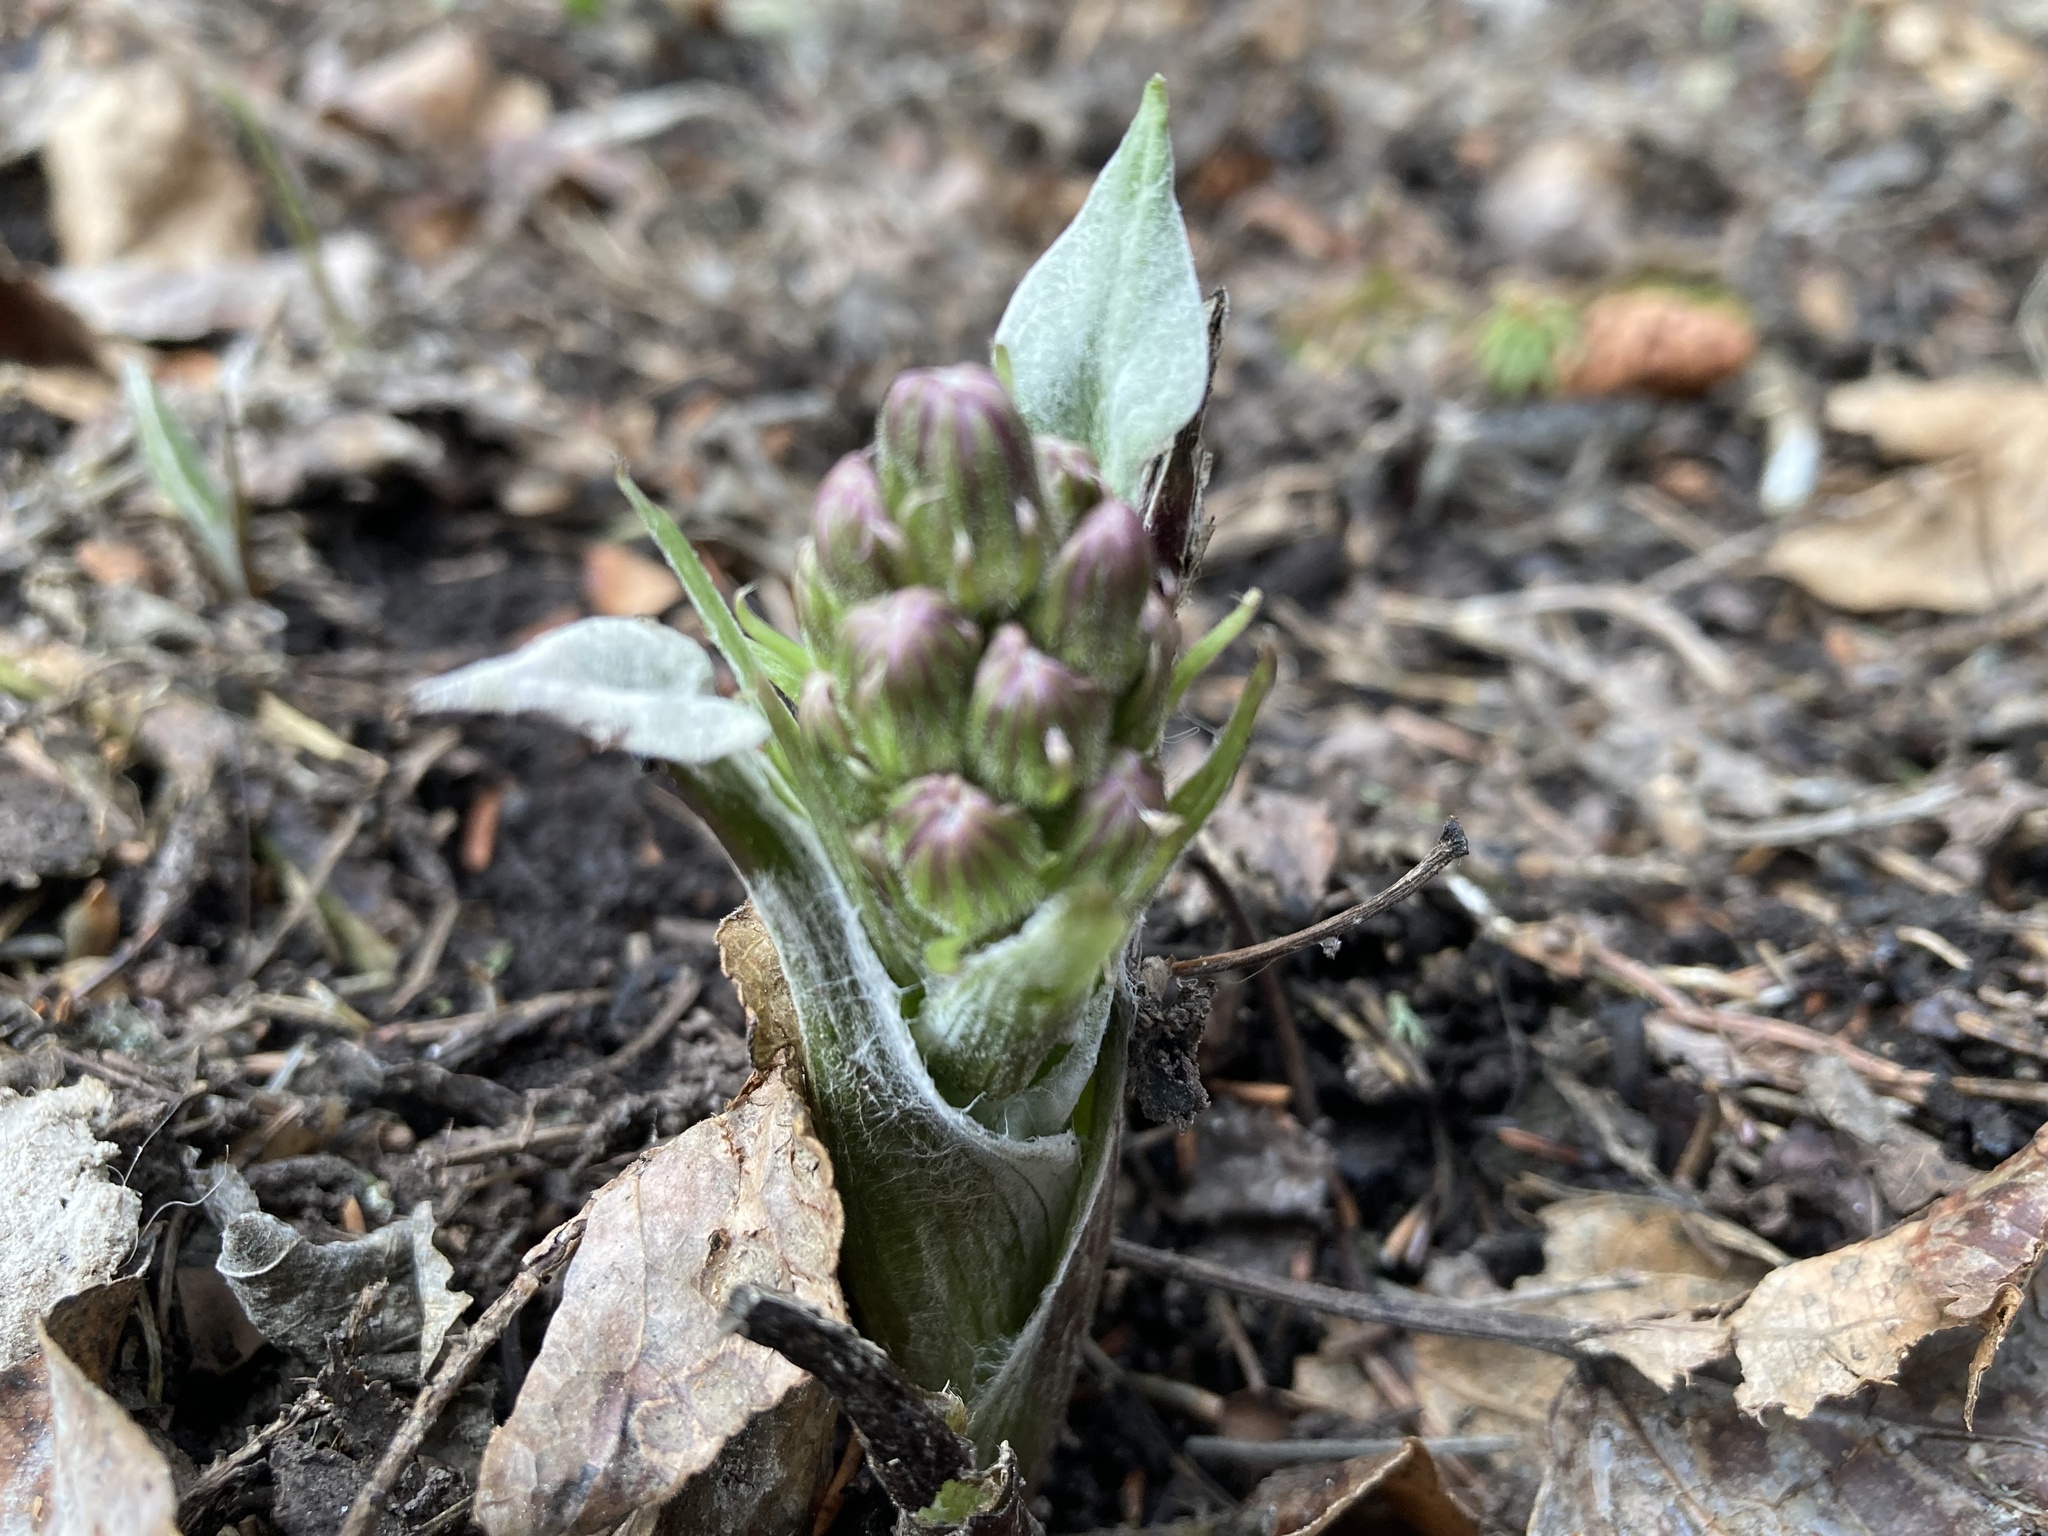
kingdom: Plantae
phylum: Tracheophyta
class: Magnoliopsida
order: Asterales
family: Asteraceae
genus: Petasites
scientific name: Petasites frigidus
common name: Arctic butterbur
